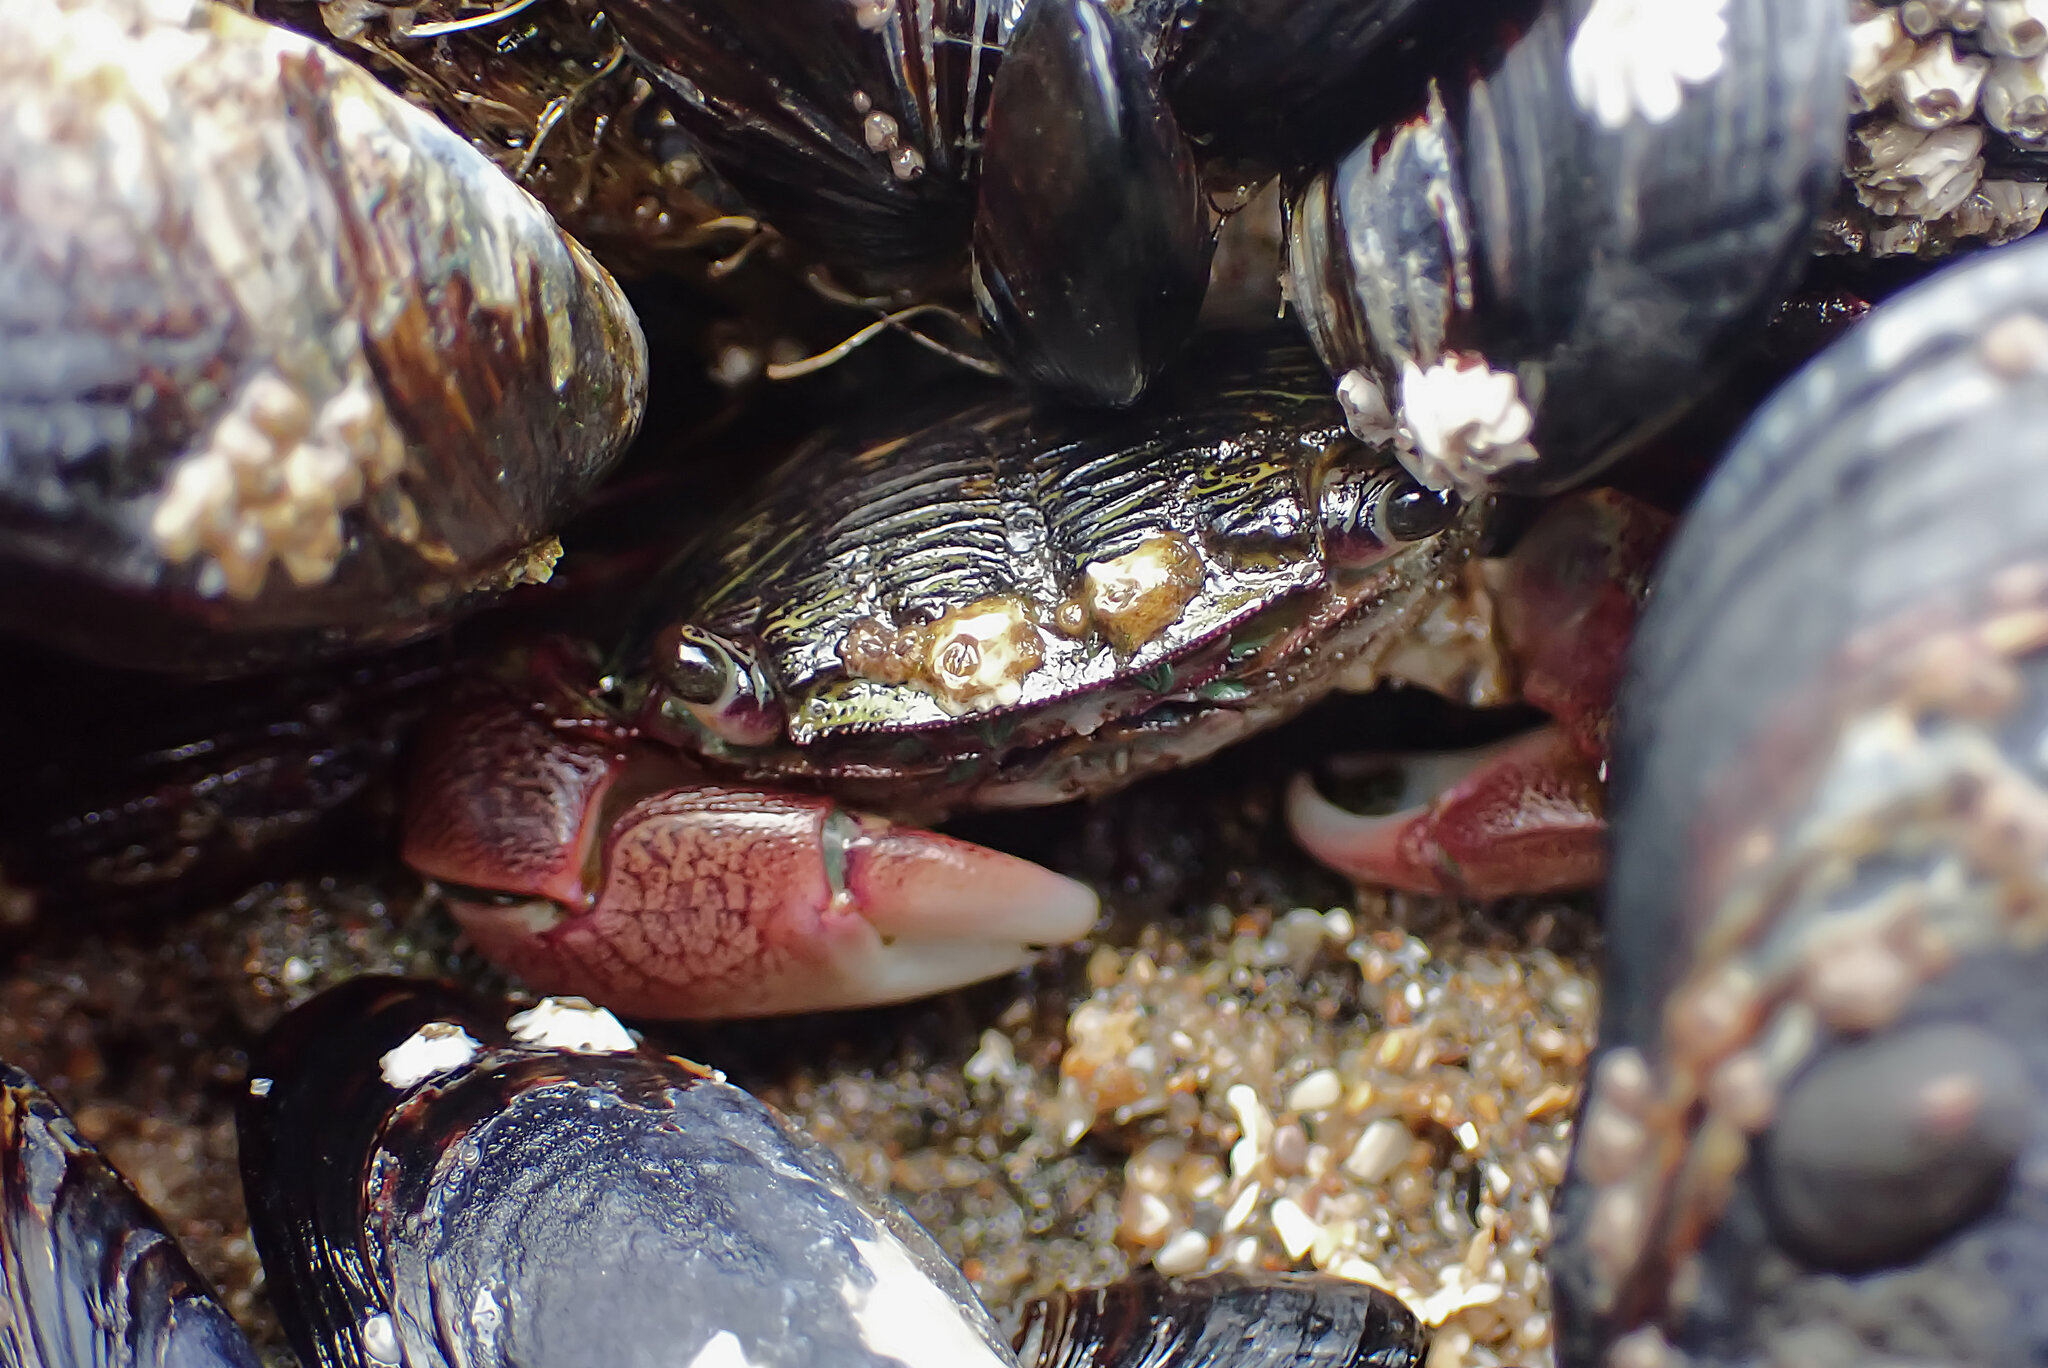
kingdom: Animalia
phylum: Arthropoda
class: Malacostraca
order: Decapoda
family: Grapsidae
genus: Pachygrapsus
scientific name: Pachygrapsus crassipes
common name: Striped shore crab
